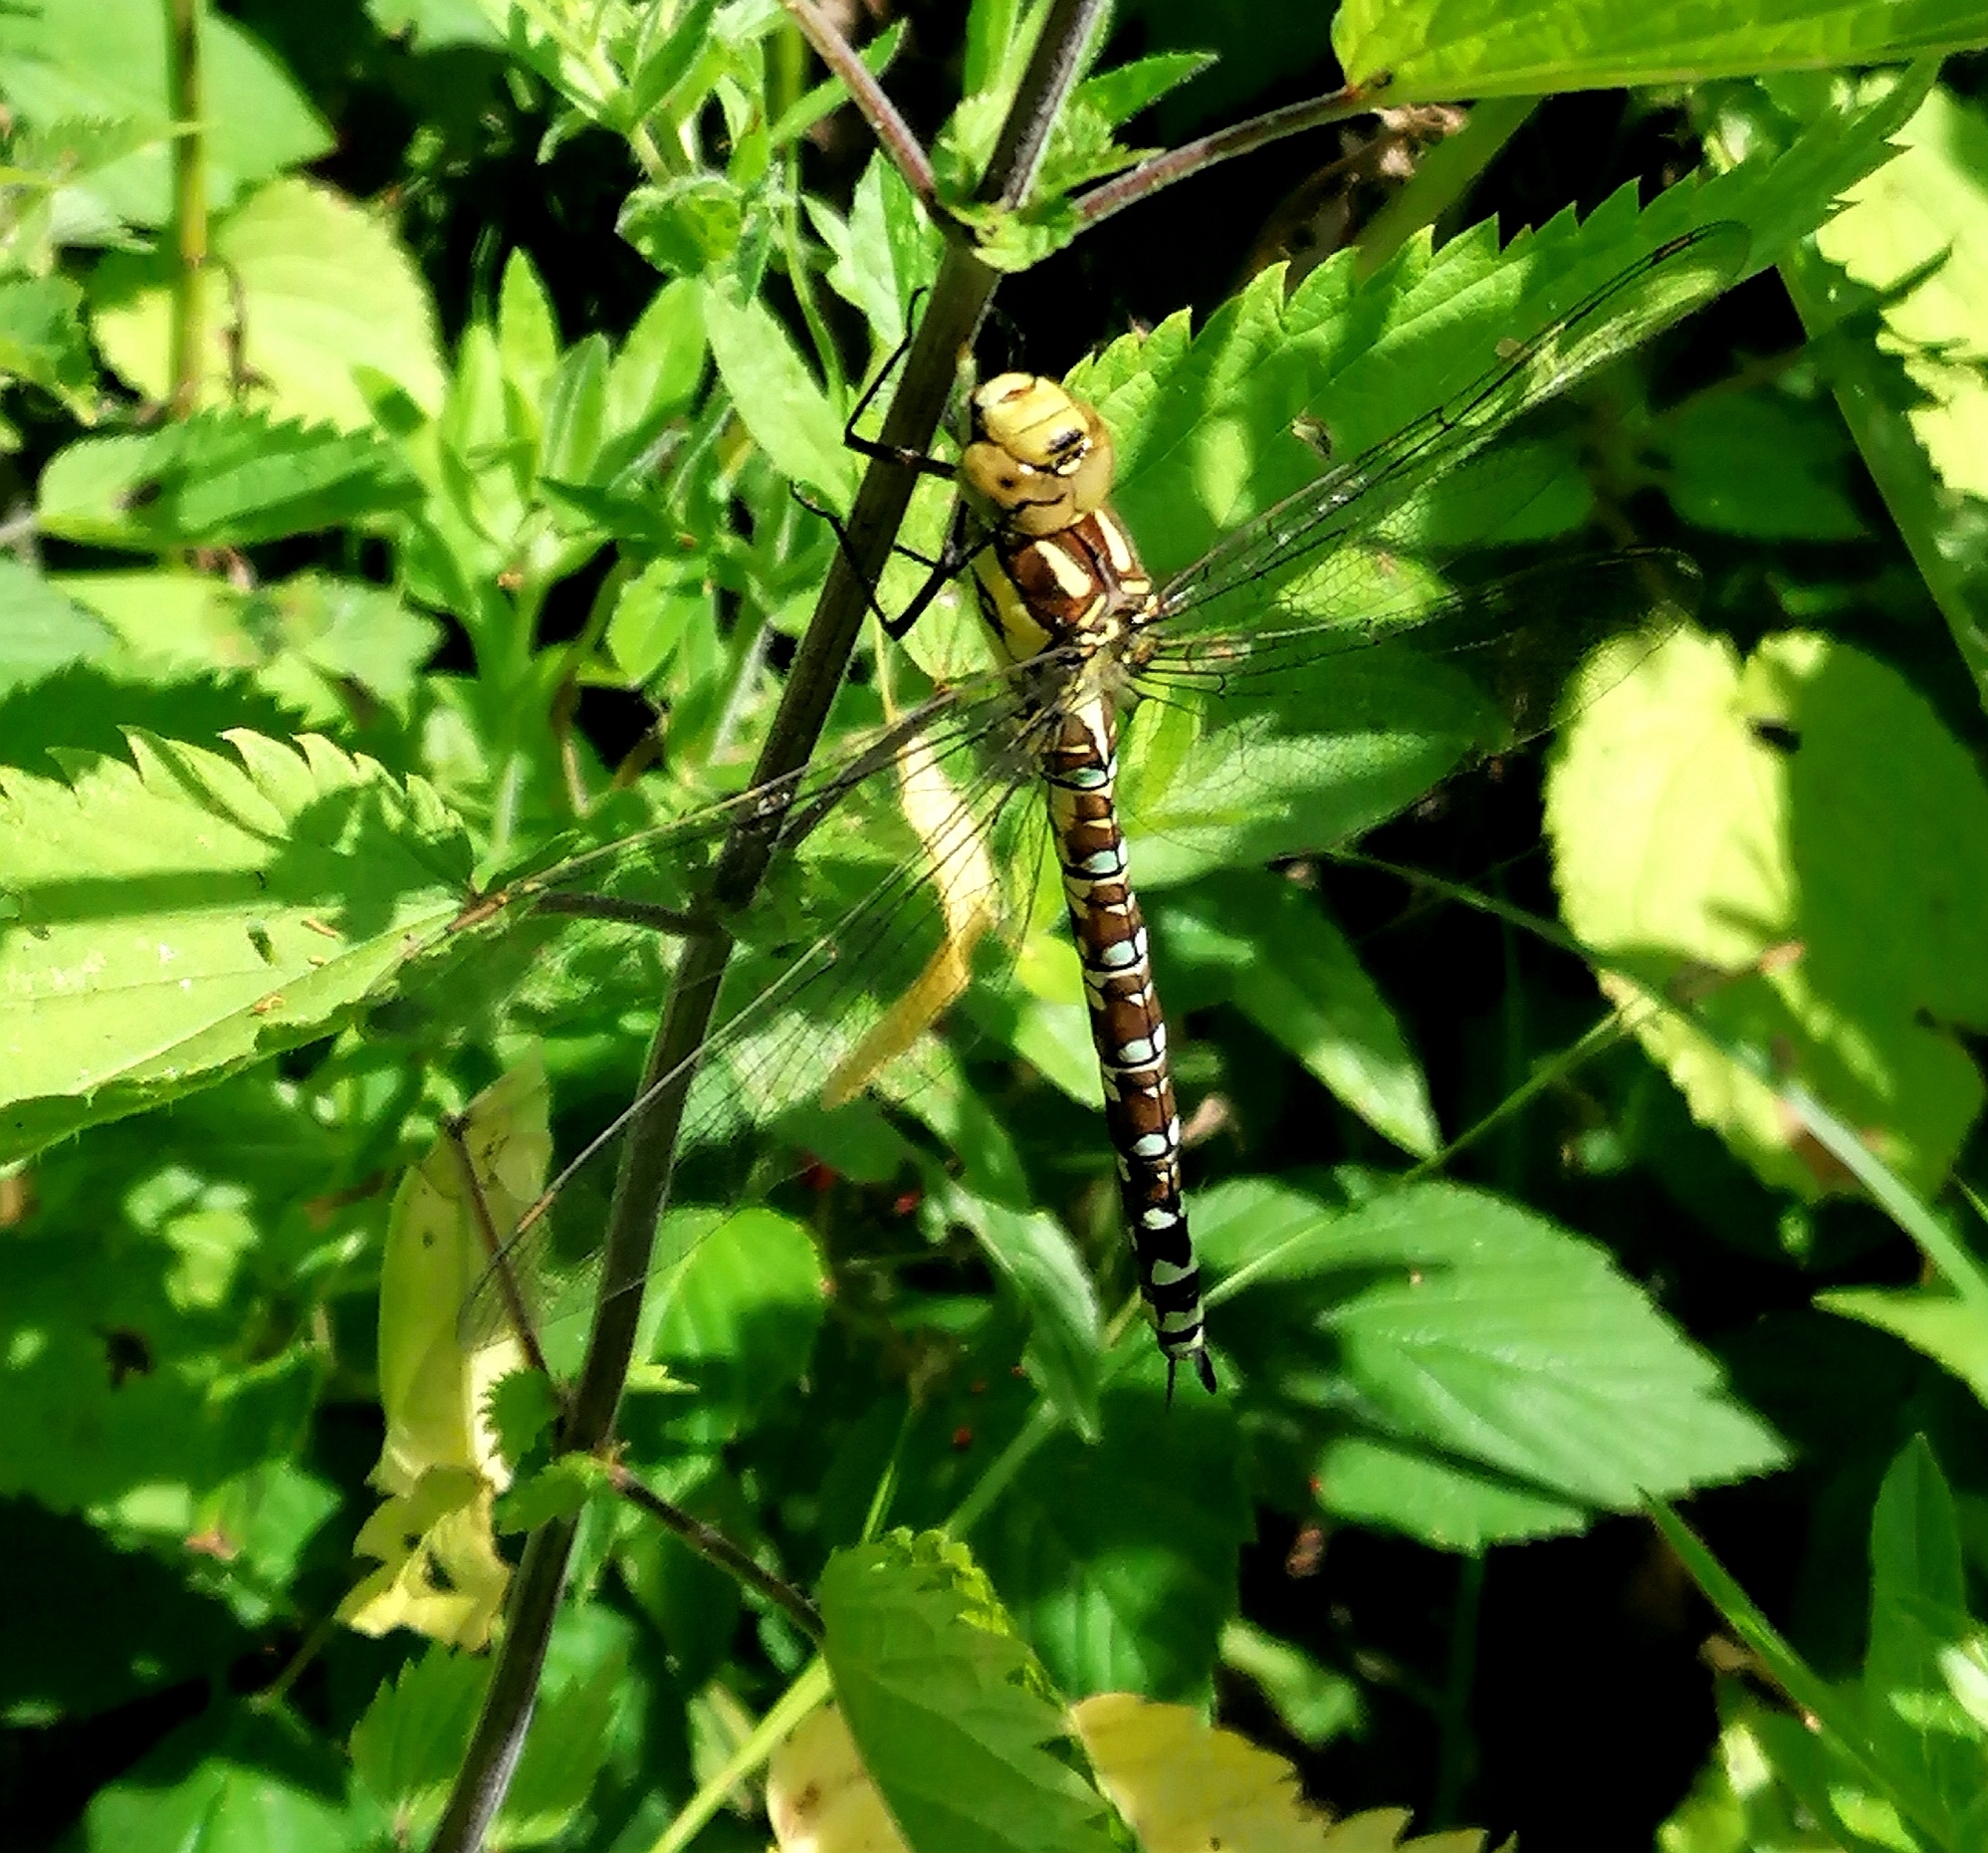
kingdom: Animalia
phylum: Arthropoda
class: Insecta
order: Odonata
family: Aeshnidae
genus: Aeshna
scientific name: Aeshna cyanea
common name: Southern hawker
